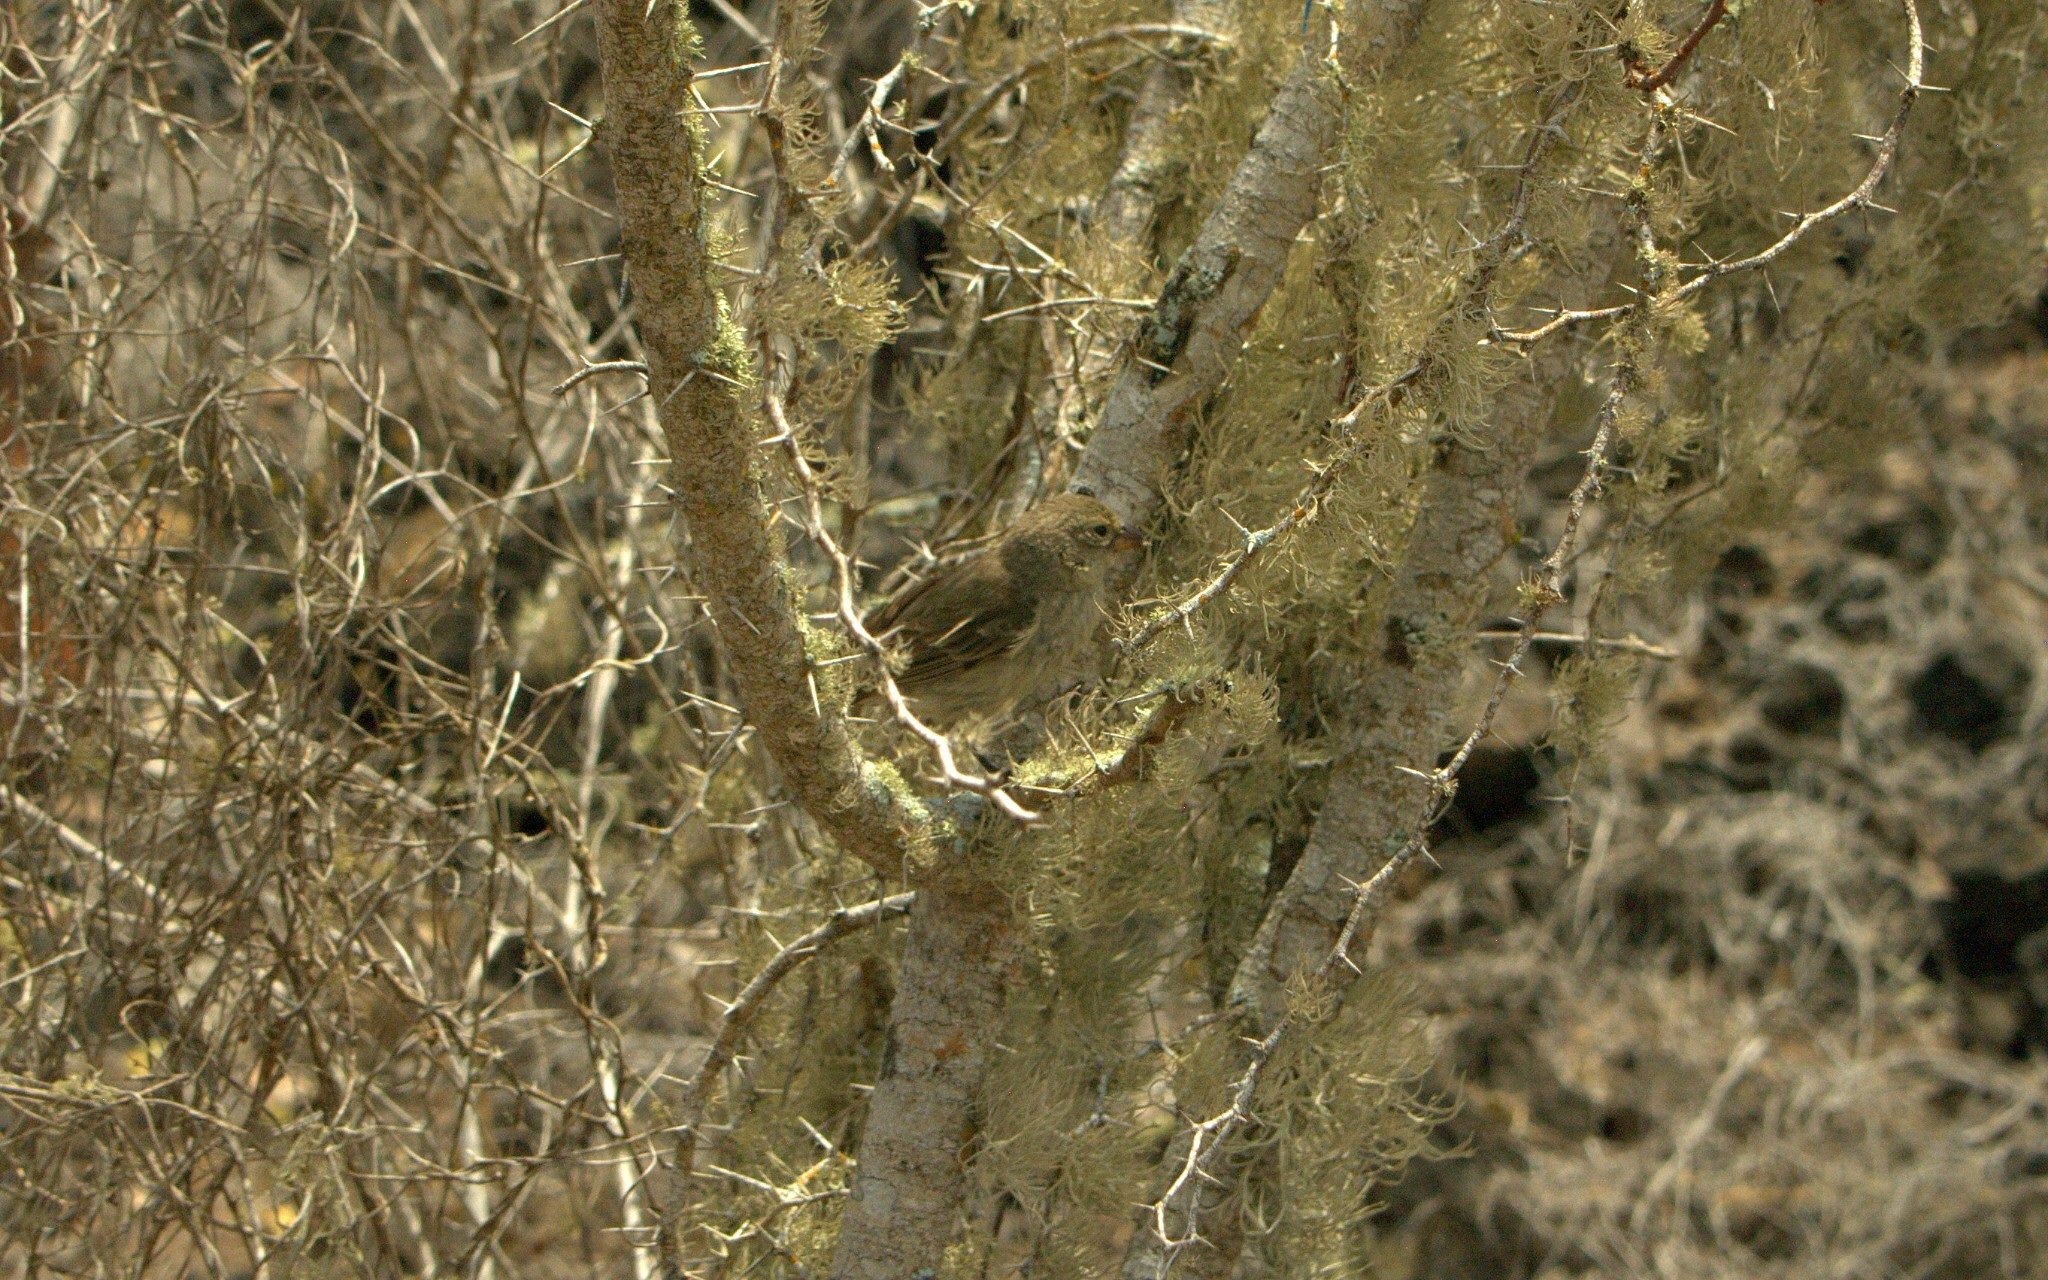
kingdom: Animalia
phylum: Chordata
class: Aves
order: Passeriformes
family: Thraupidae
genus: Camarhynchus
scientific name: Camarhynchus pallidus
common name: Woodpecker finch
